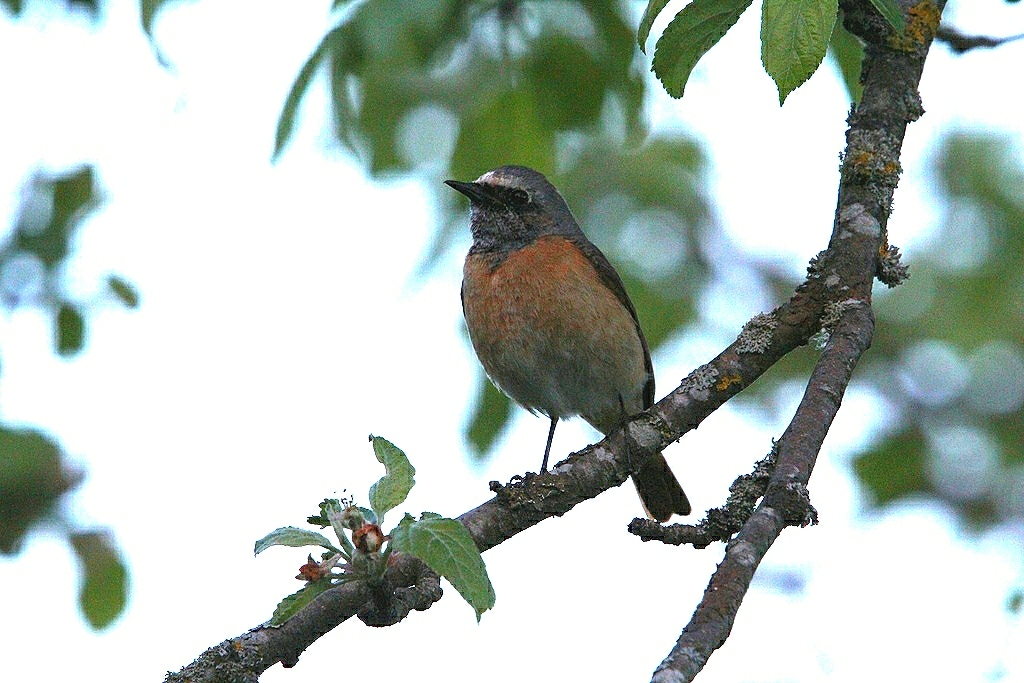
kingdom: Animalia
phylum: Chordata
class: Aves
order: Passeriformes
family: Muscicapidae
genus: Phoenicurus
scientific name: Phoenicurus phoenicurus
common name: Common redstart
